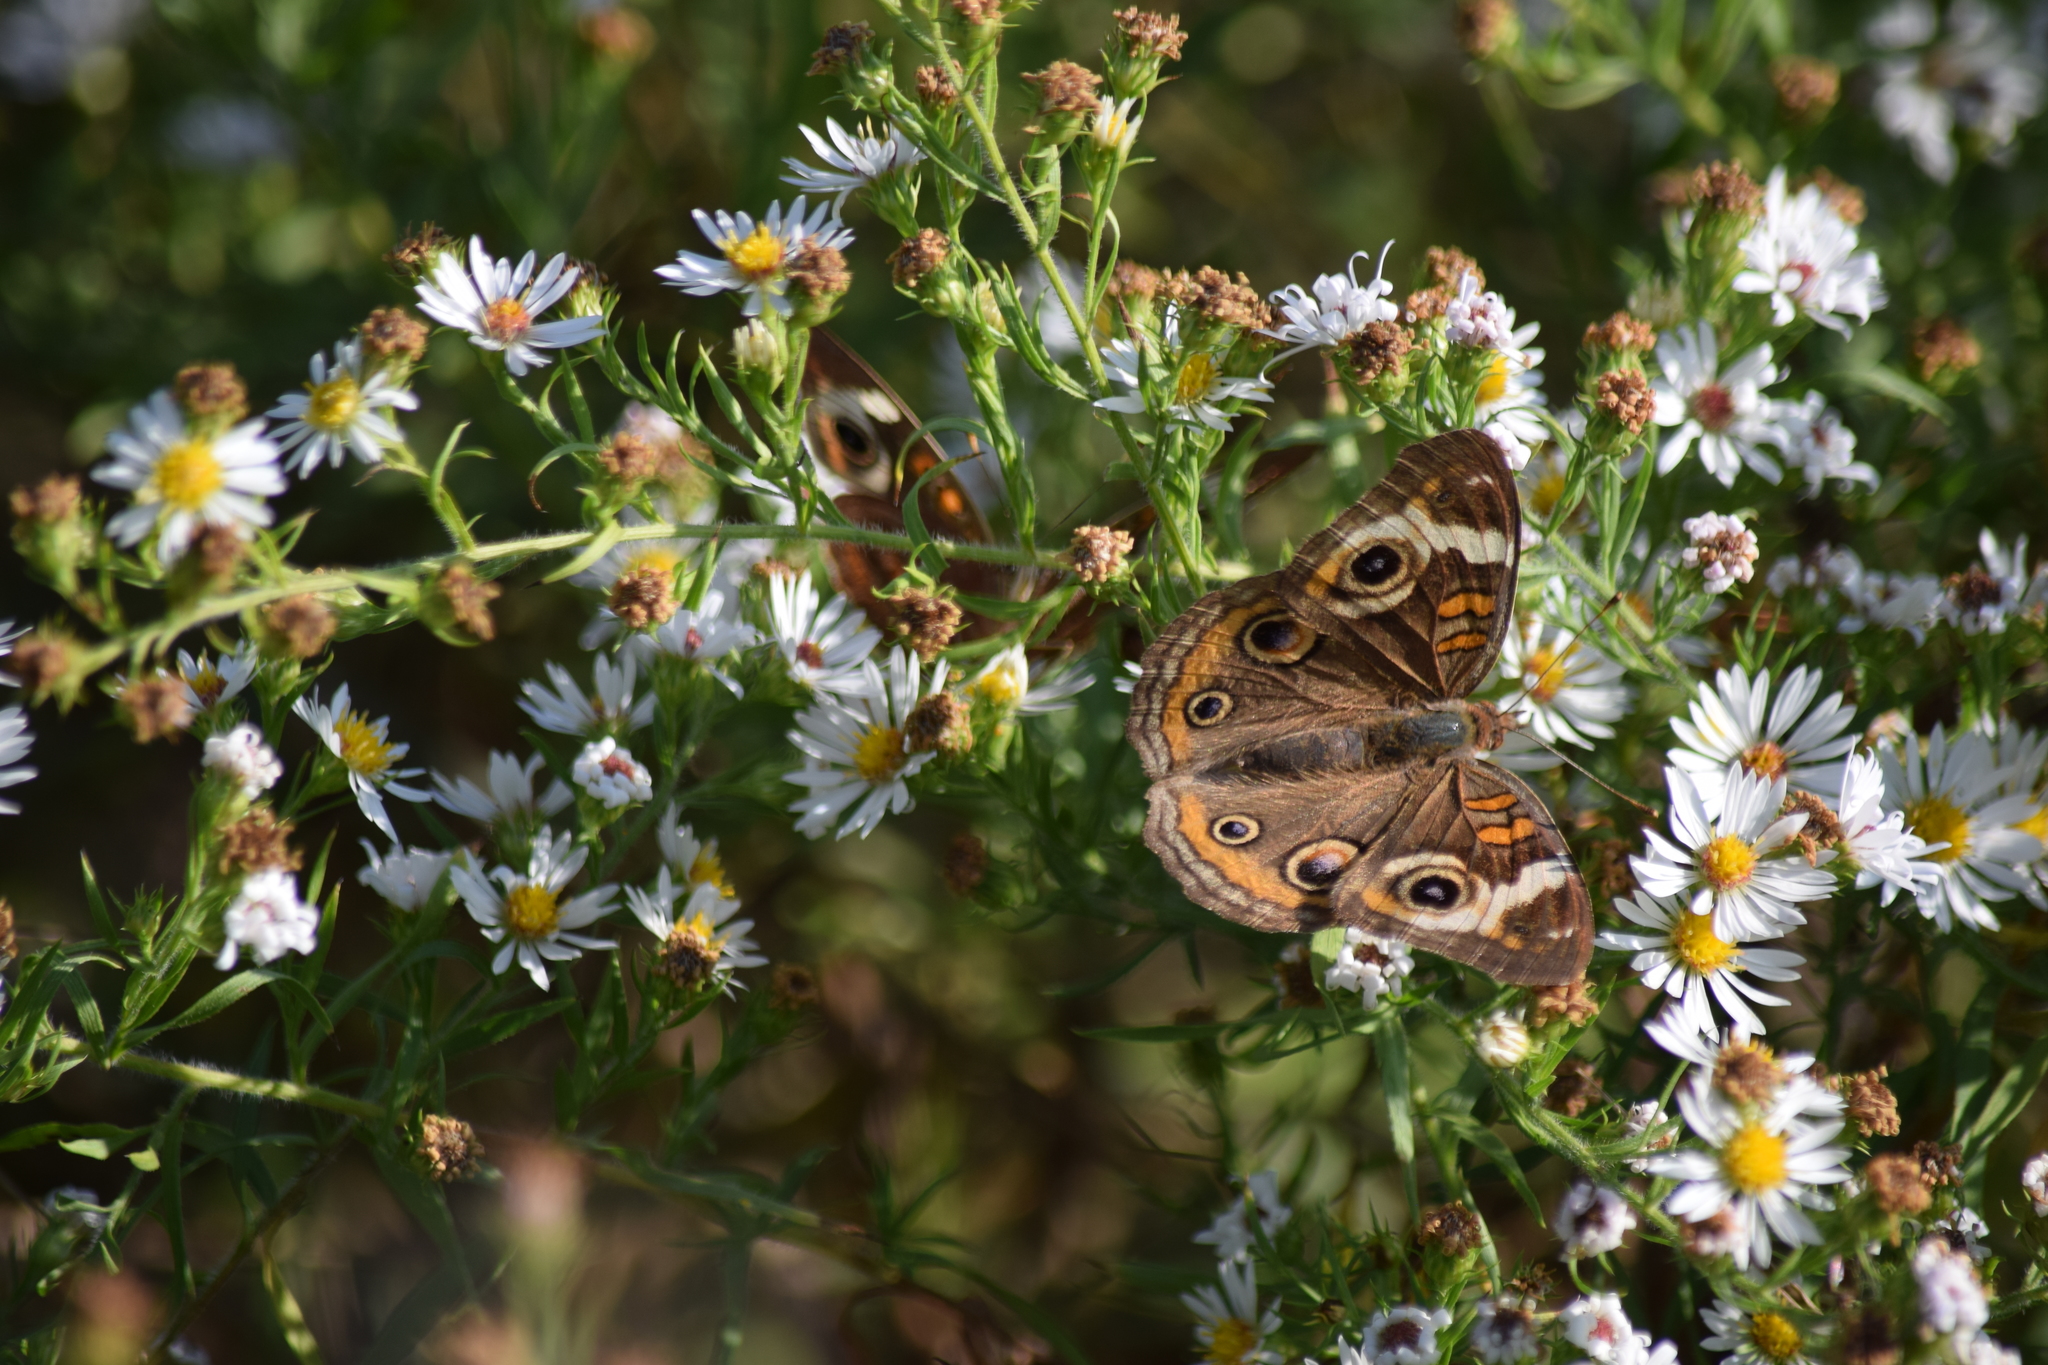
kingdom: Animalia
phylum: Arthropoda
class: Insecta
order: Lepidoptera
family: Nymphalidae
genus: Junonia
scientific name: Junonia coenia
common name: Common buckeye
